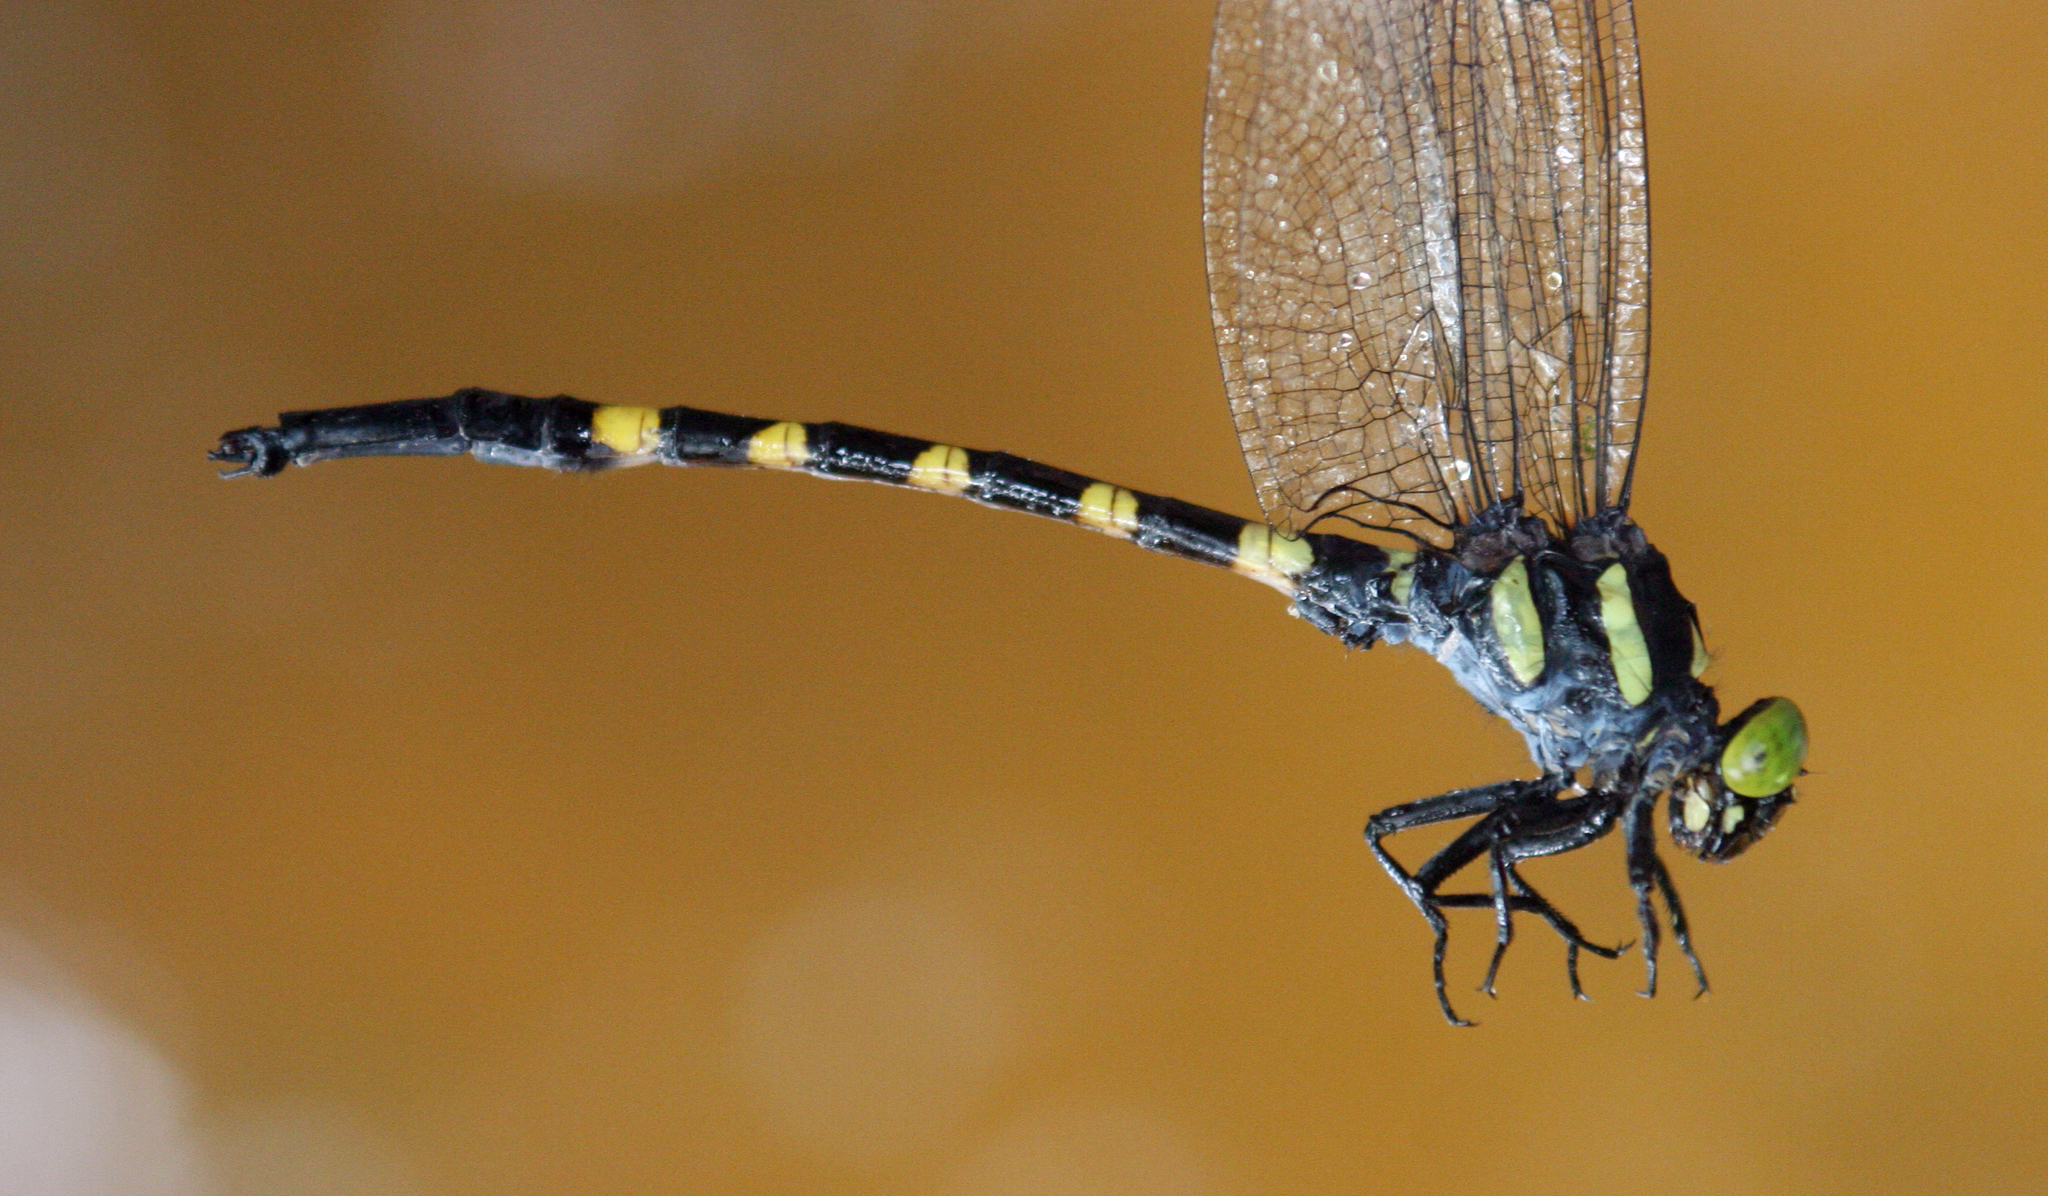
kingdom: Animalia
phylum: Arthropoda
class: Insecta
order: Odonata
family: Gomphidae
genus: Macrogomphus
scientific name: Macrogomphus kerri
